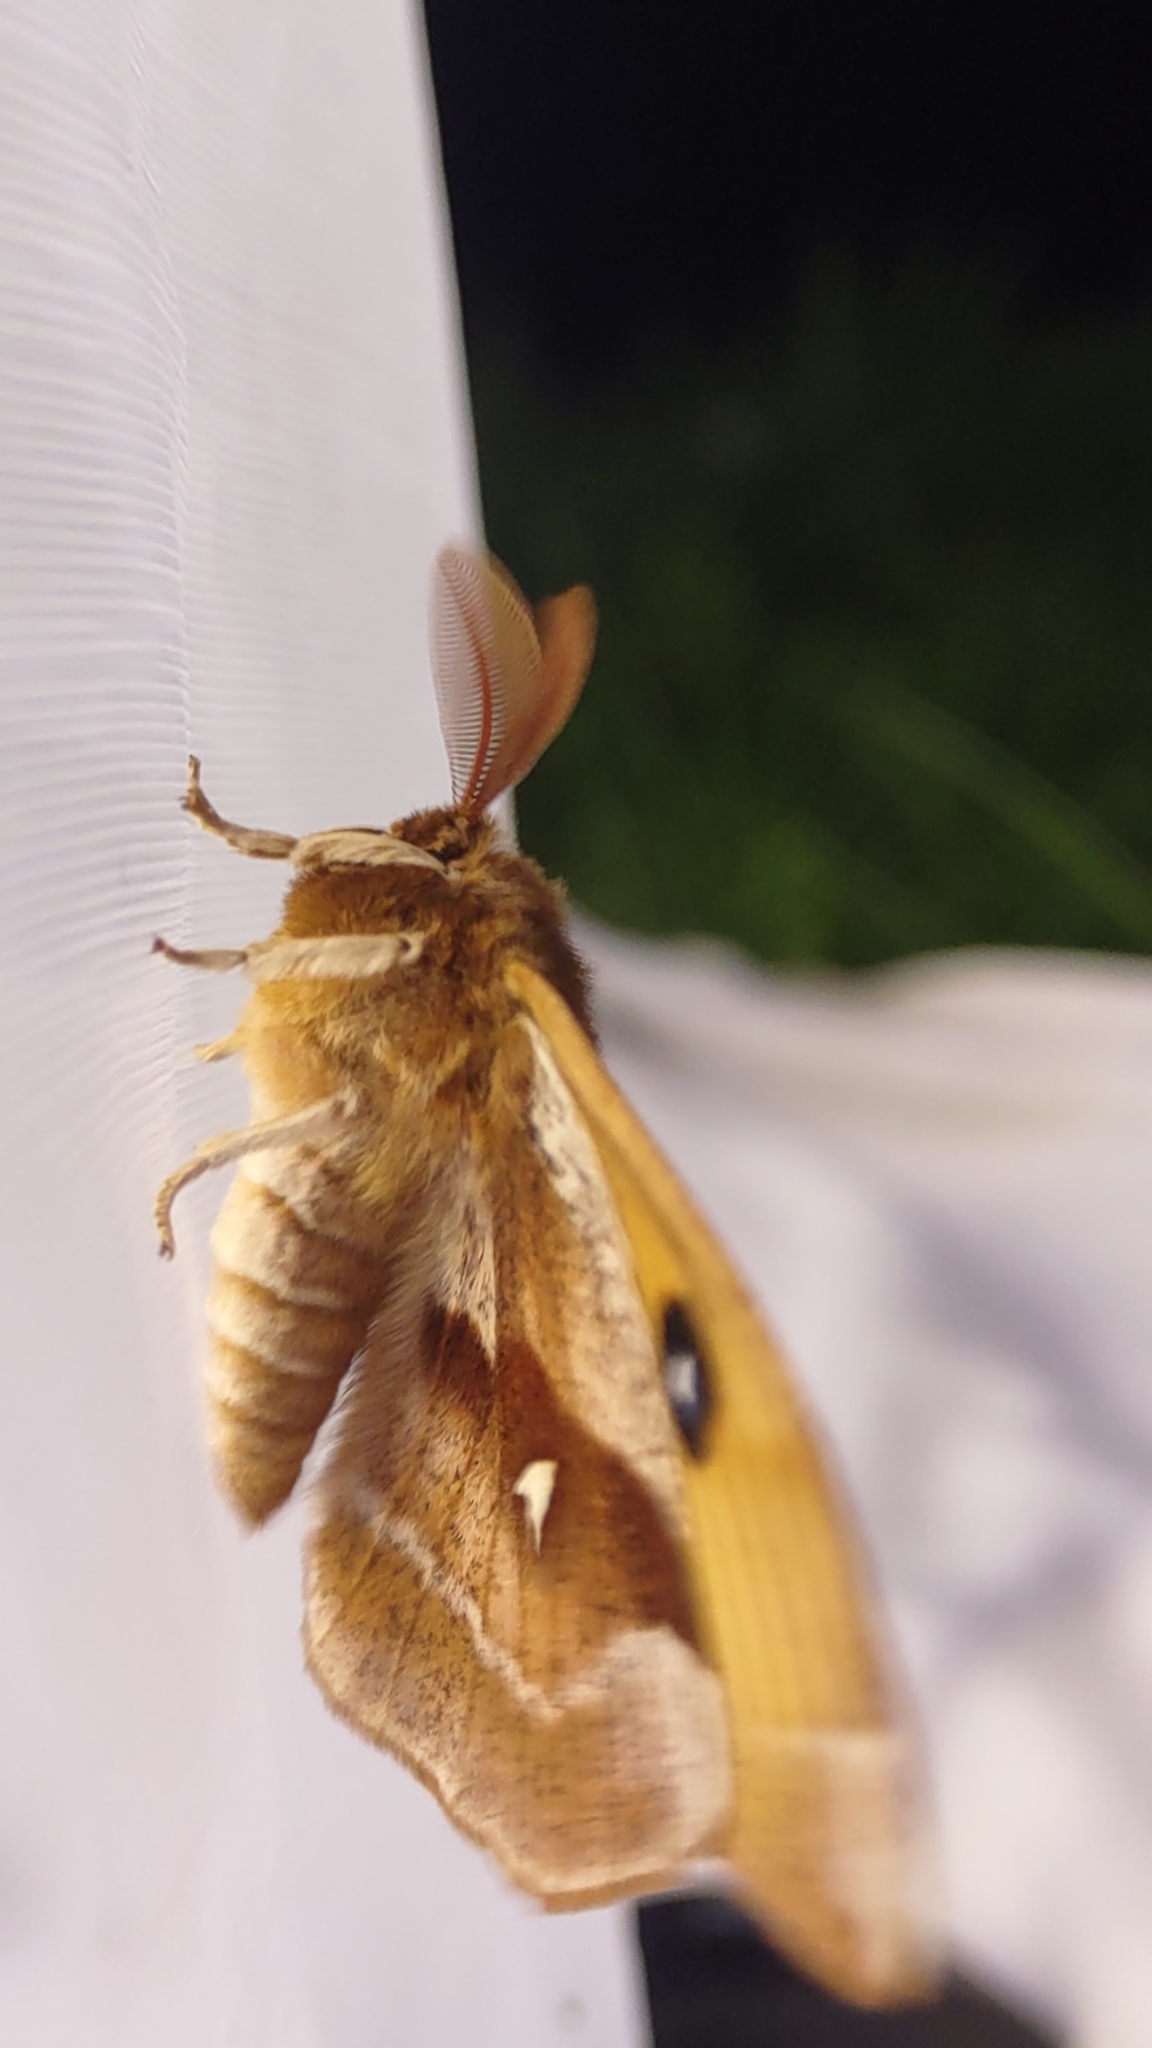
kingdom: Animalia
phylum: Arthropoda
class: Insecta
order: Lepidoptera
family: Saturniidae
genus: Aglia
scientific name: Aglia tau
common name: Tau emperor
